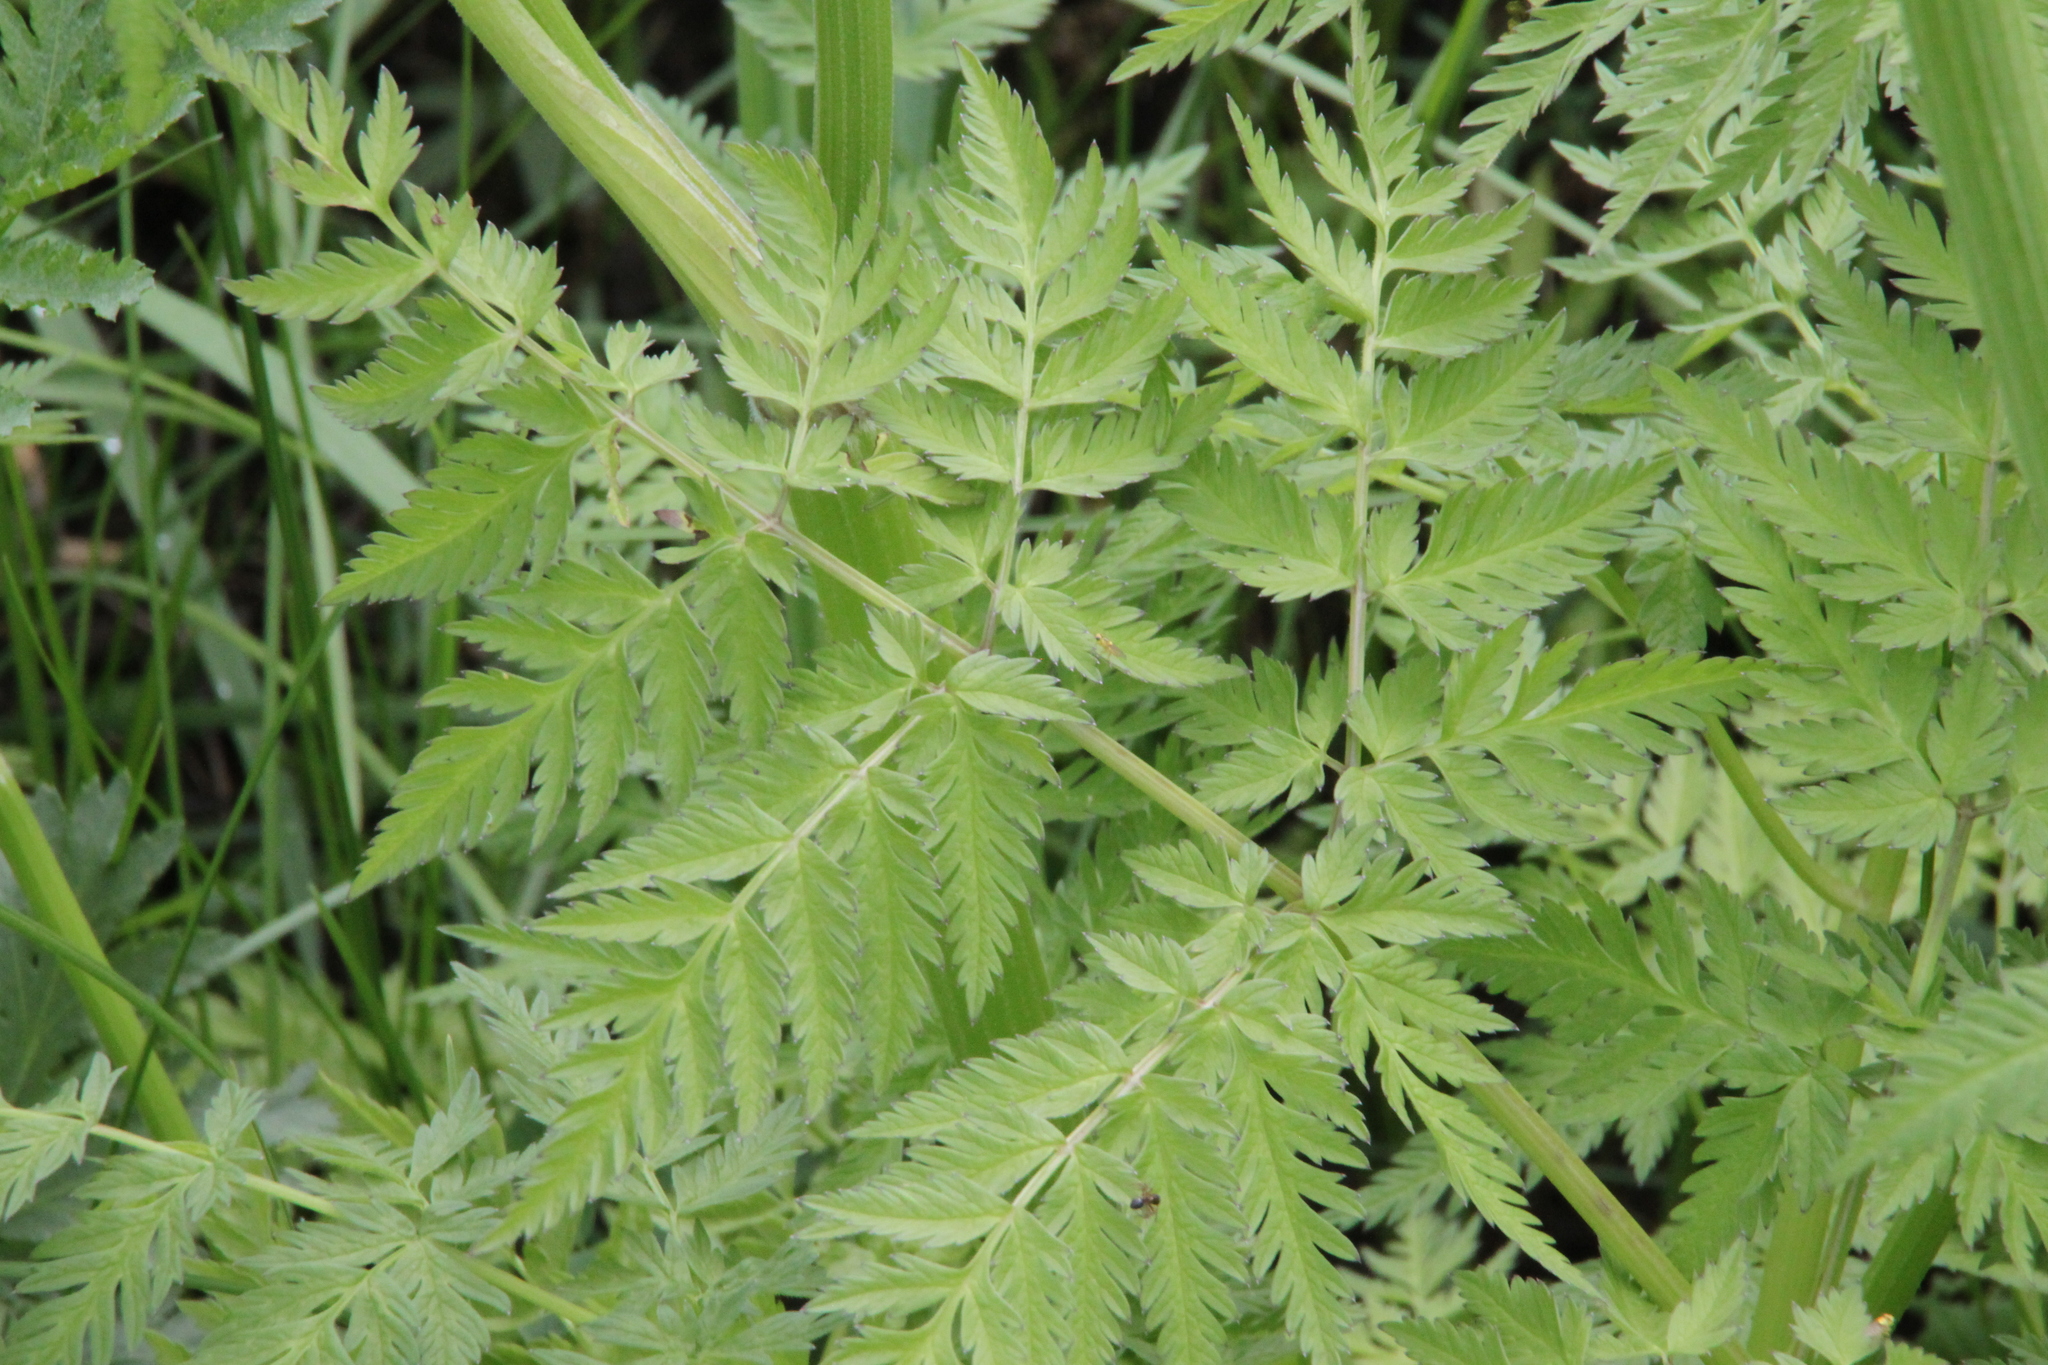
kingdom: Plantae
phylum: Tracheophyta
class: Magnoliopsida
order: Apiales
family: Apiaceae
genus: Anthriscus
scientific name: Anthriscus sylvestris
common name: Cow parsley
